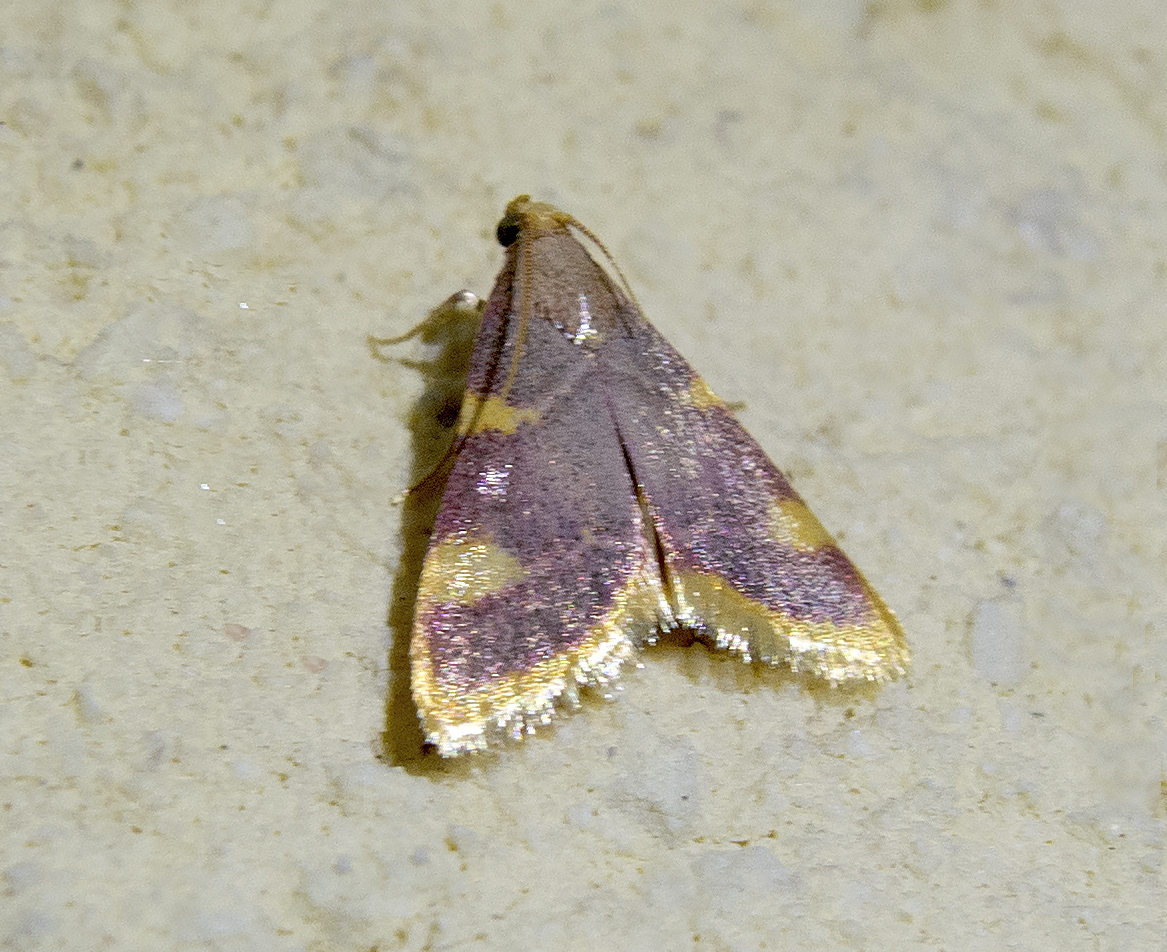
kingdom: Animalia
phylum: Arthropoda
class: Insecta
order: Lepidoptera
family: Pyralidae
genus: Hypsopygia
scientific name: Hypsopygia costalis
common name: Gold triangle
